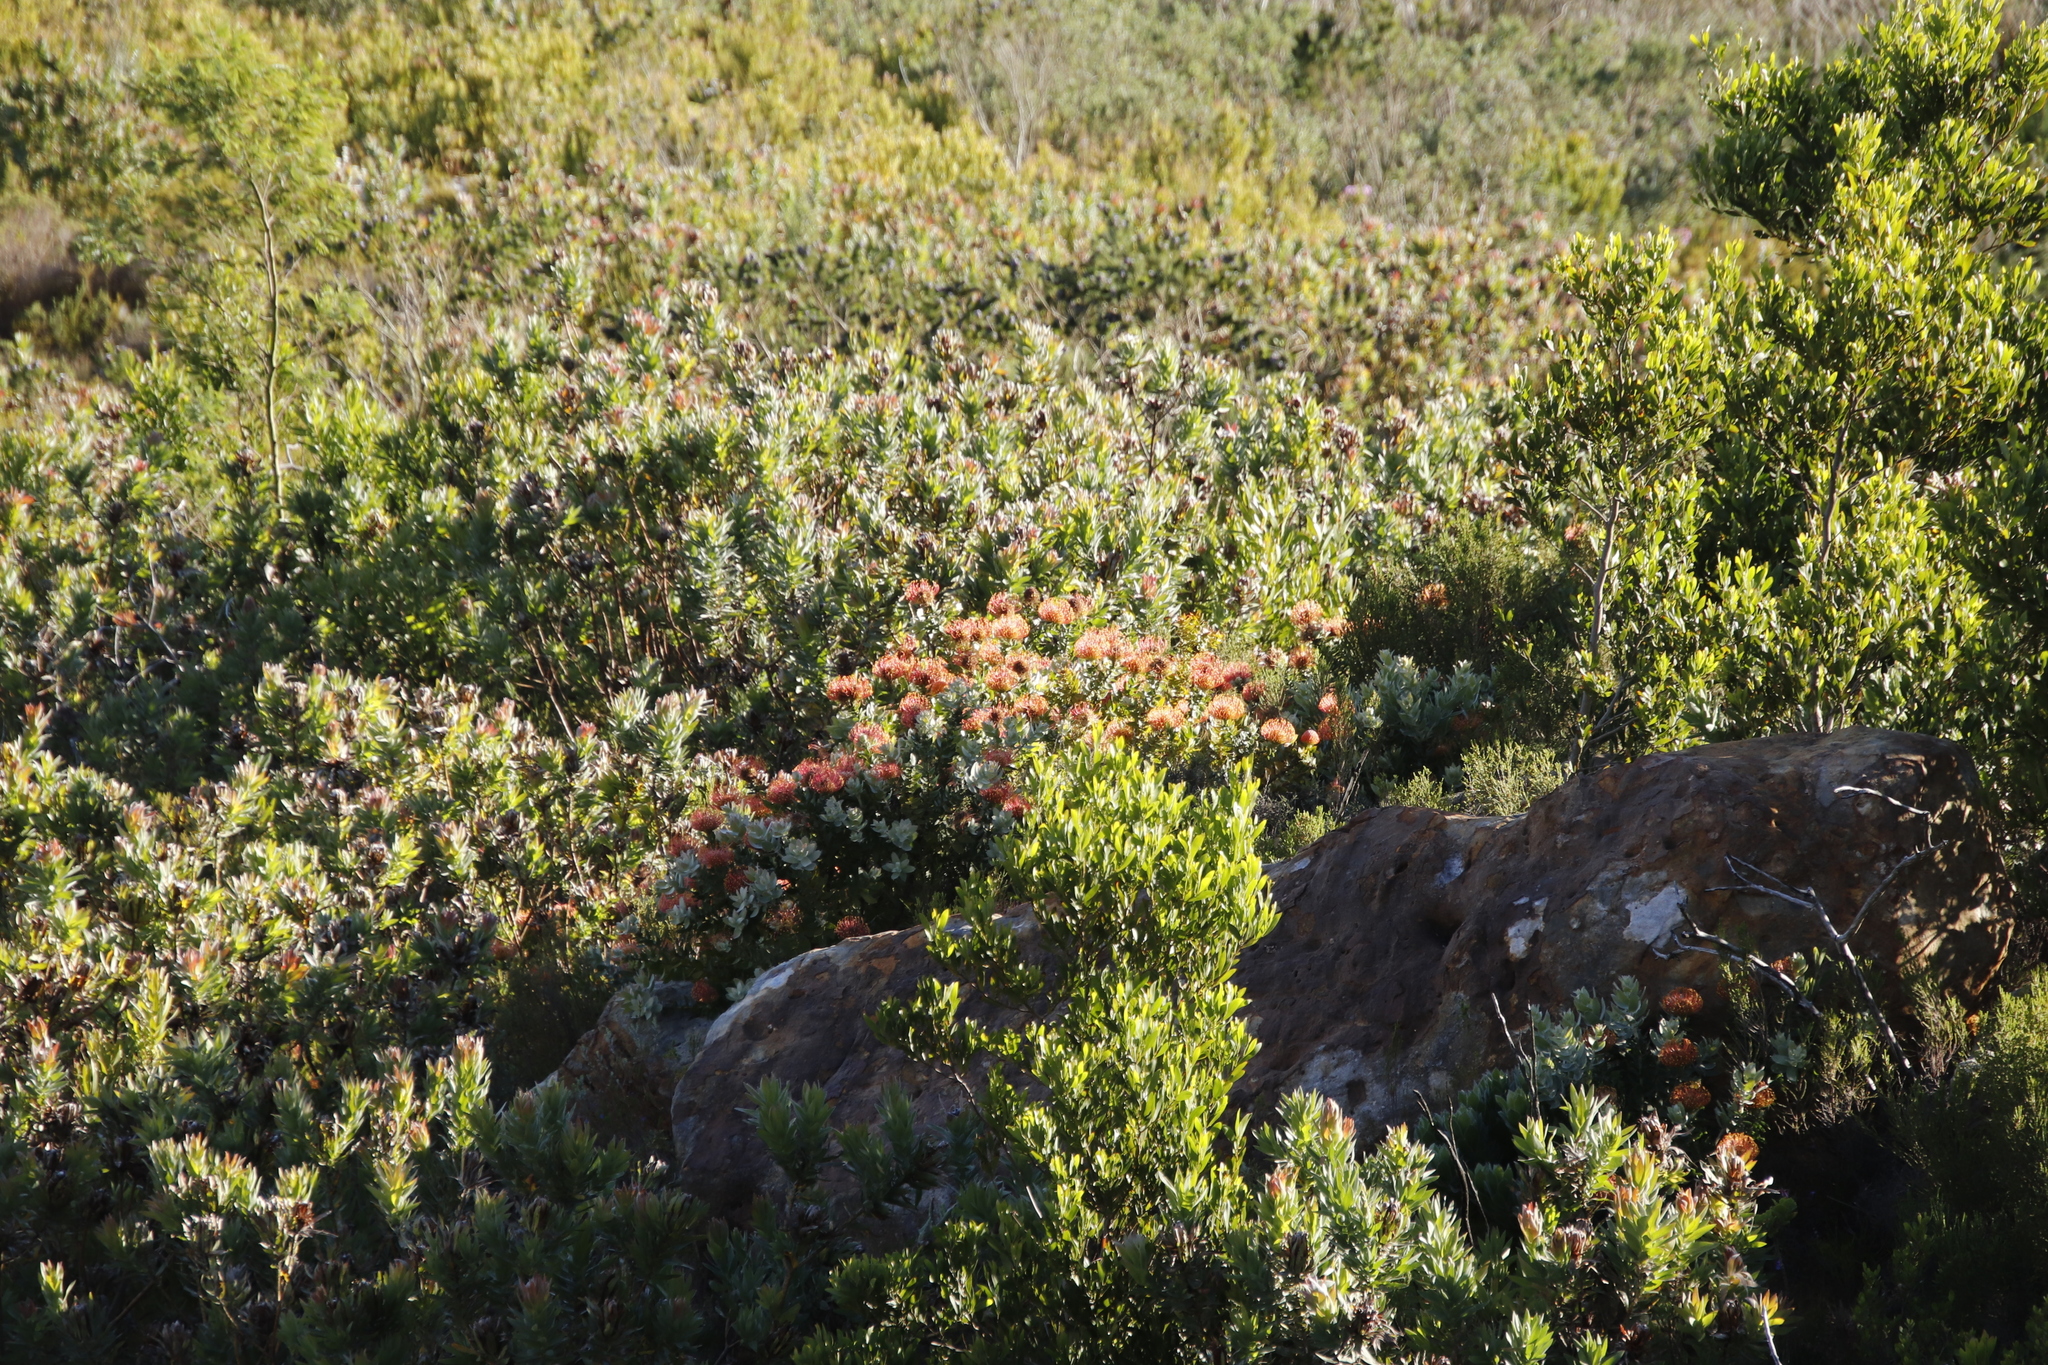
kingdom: Plantae
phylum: Tracheophyta
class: Magnoliopsida
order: Proteales
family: Proteaceae
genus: Leucospermum
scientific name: Leucospermum cordifolium
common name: Red pincushion-protea
